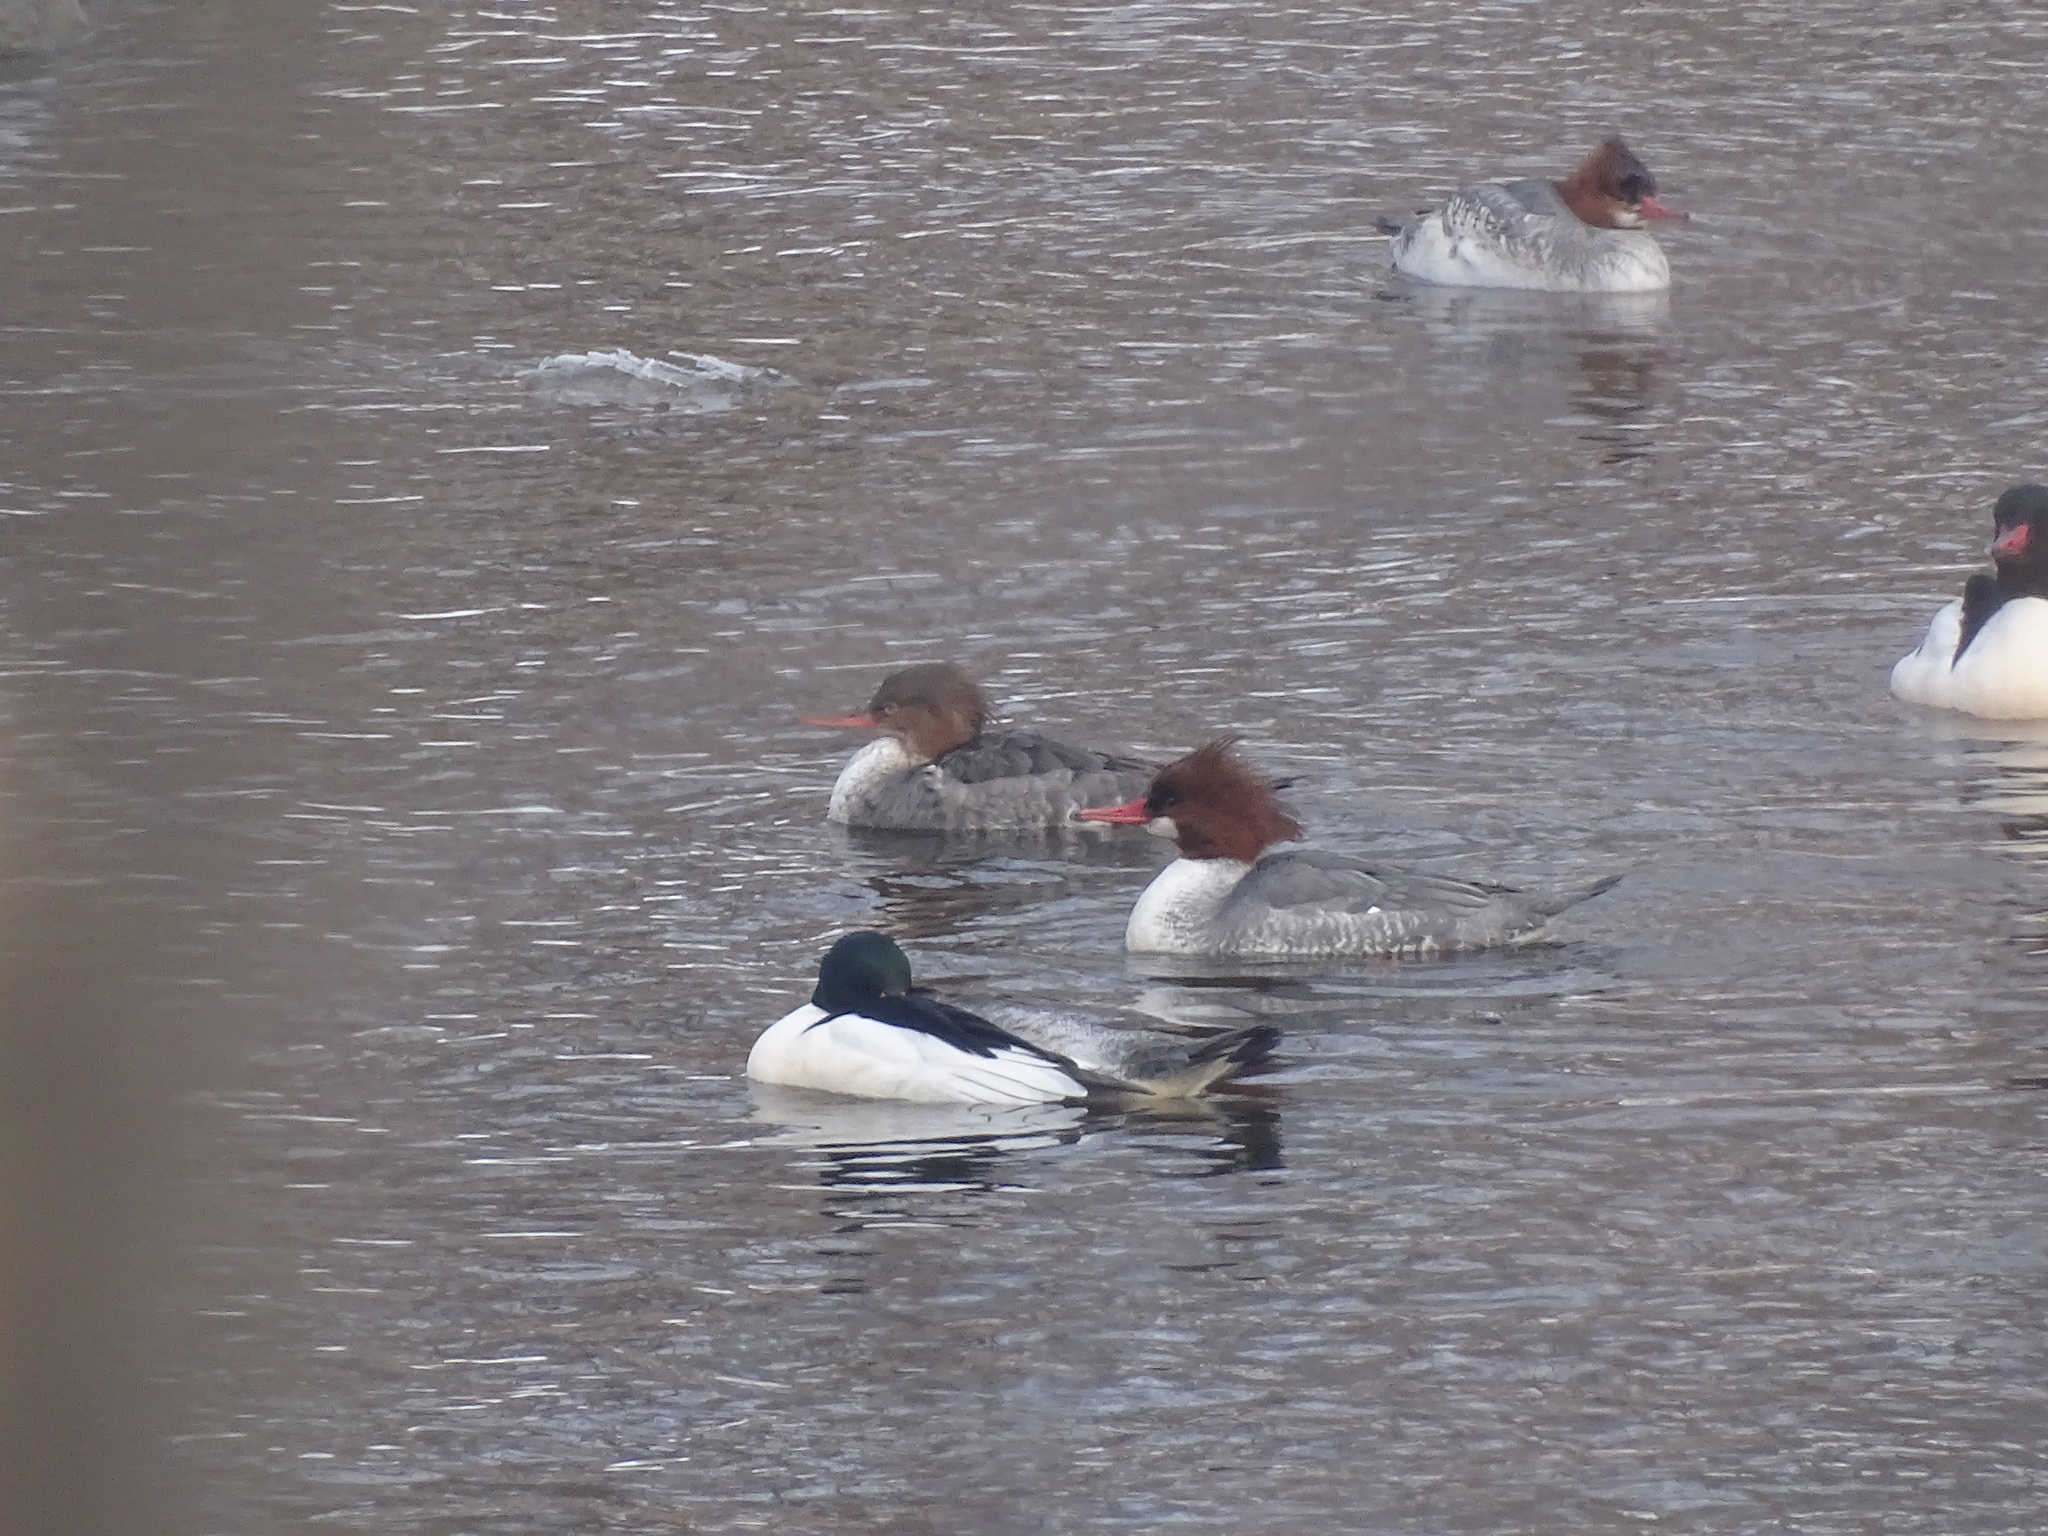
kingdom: Animalia
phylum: Chordata
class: Aves
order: Anseriformes
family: Anatidae
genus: Mergus
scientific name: Mergus serrator
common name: Red-breasted merganser
